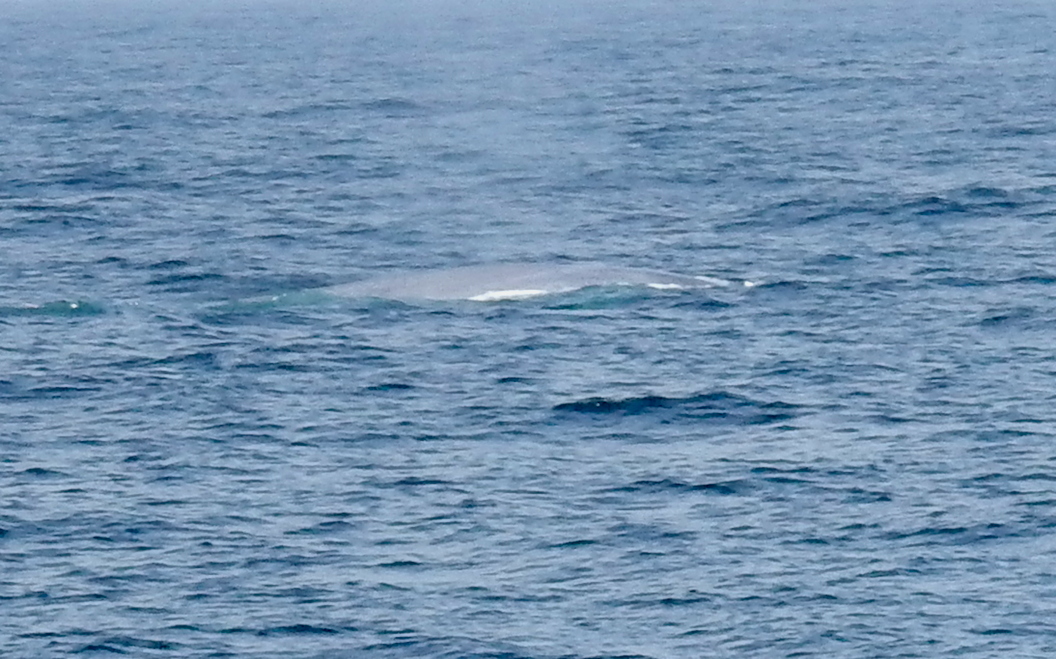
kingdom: Animalia
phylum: Chordata
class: Mammalia
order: Cetacea
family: Balaenopteridae
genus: Balaenoptera
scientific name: Balaenoptera musculus
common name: Blue whale
